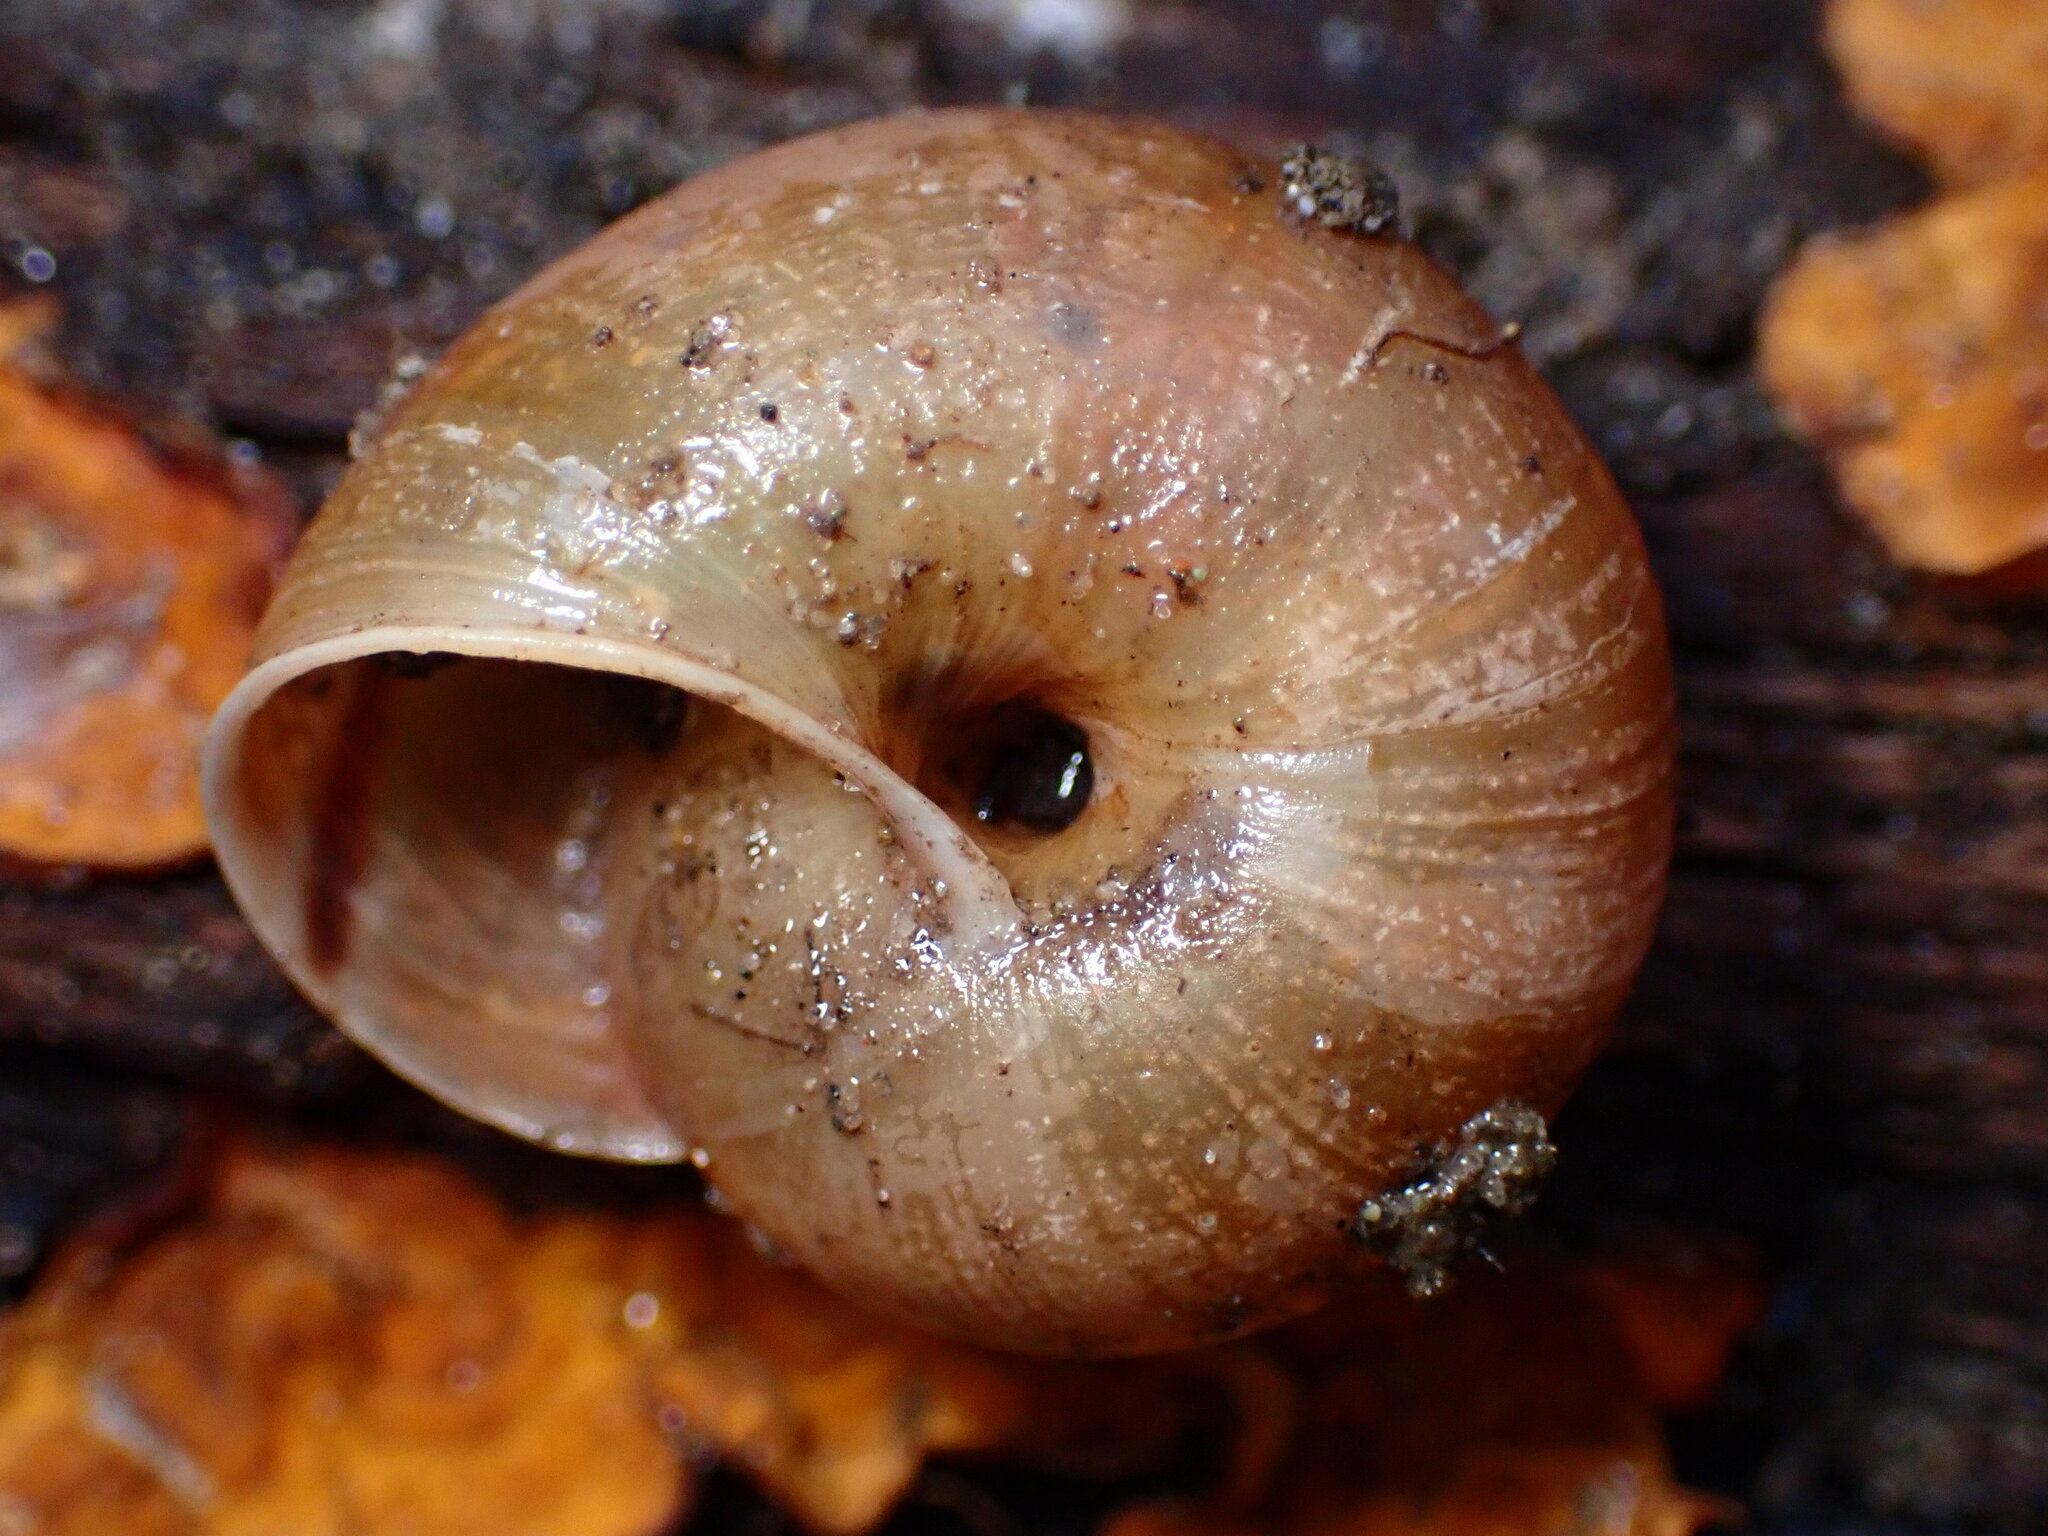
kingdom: Animalia
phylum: Mollusca
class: Gastropoda
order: Stylommatophora
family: Xanthonychidae
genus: Helminthoglypta
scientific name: Helminthoglypta umbilicata
